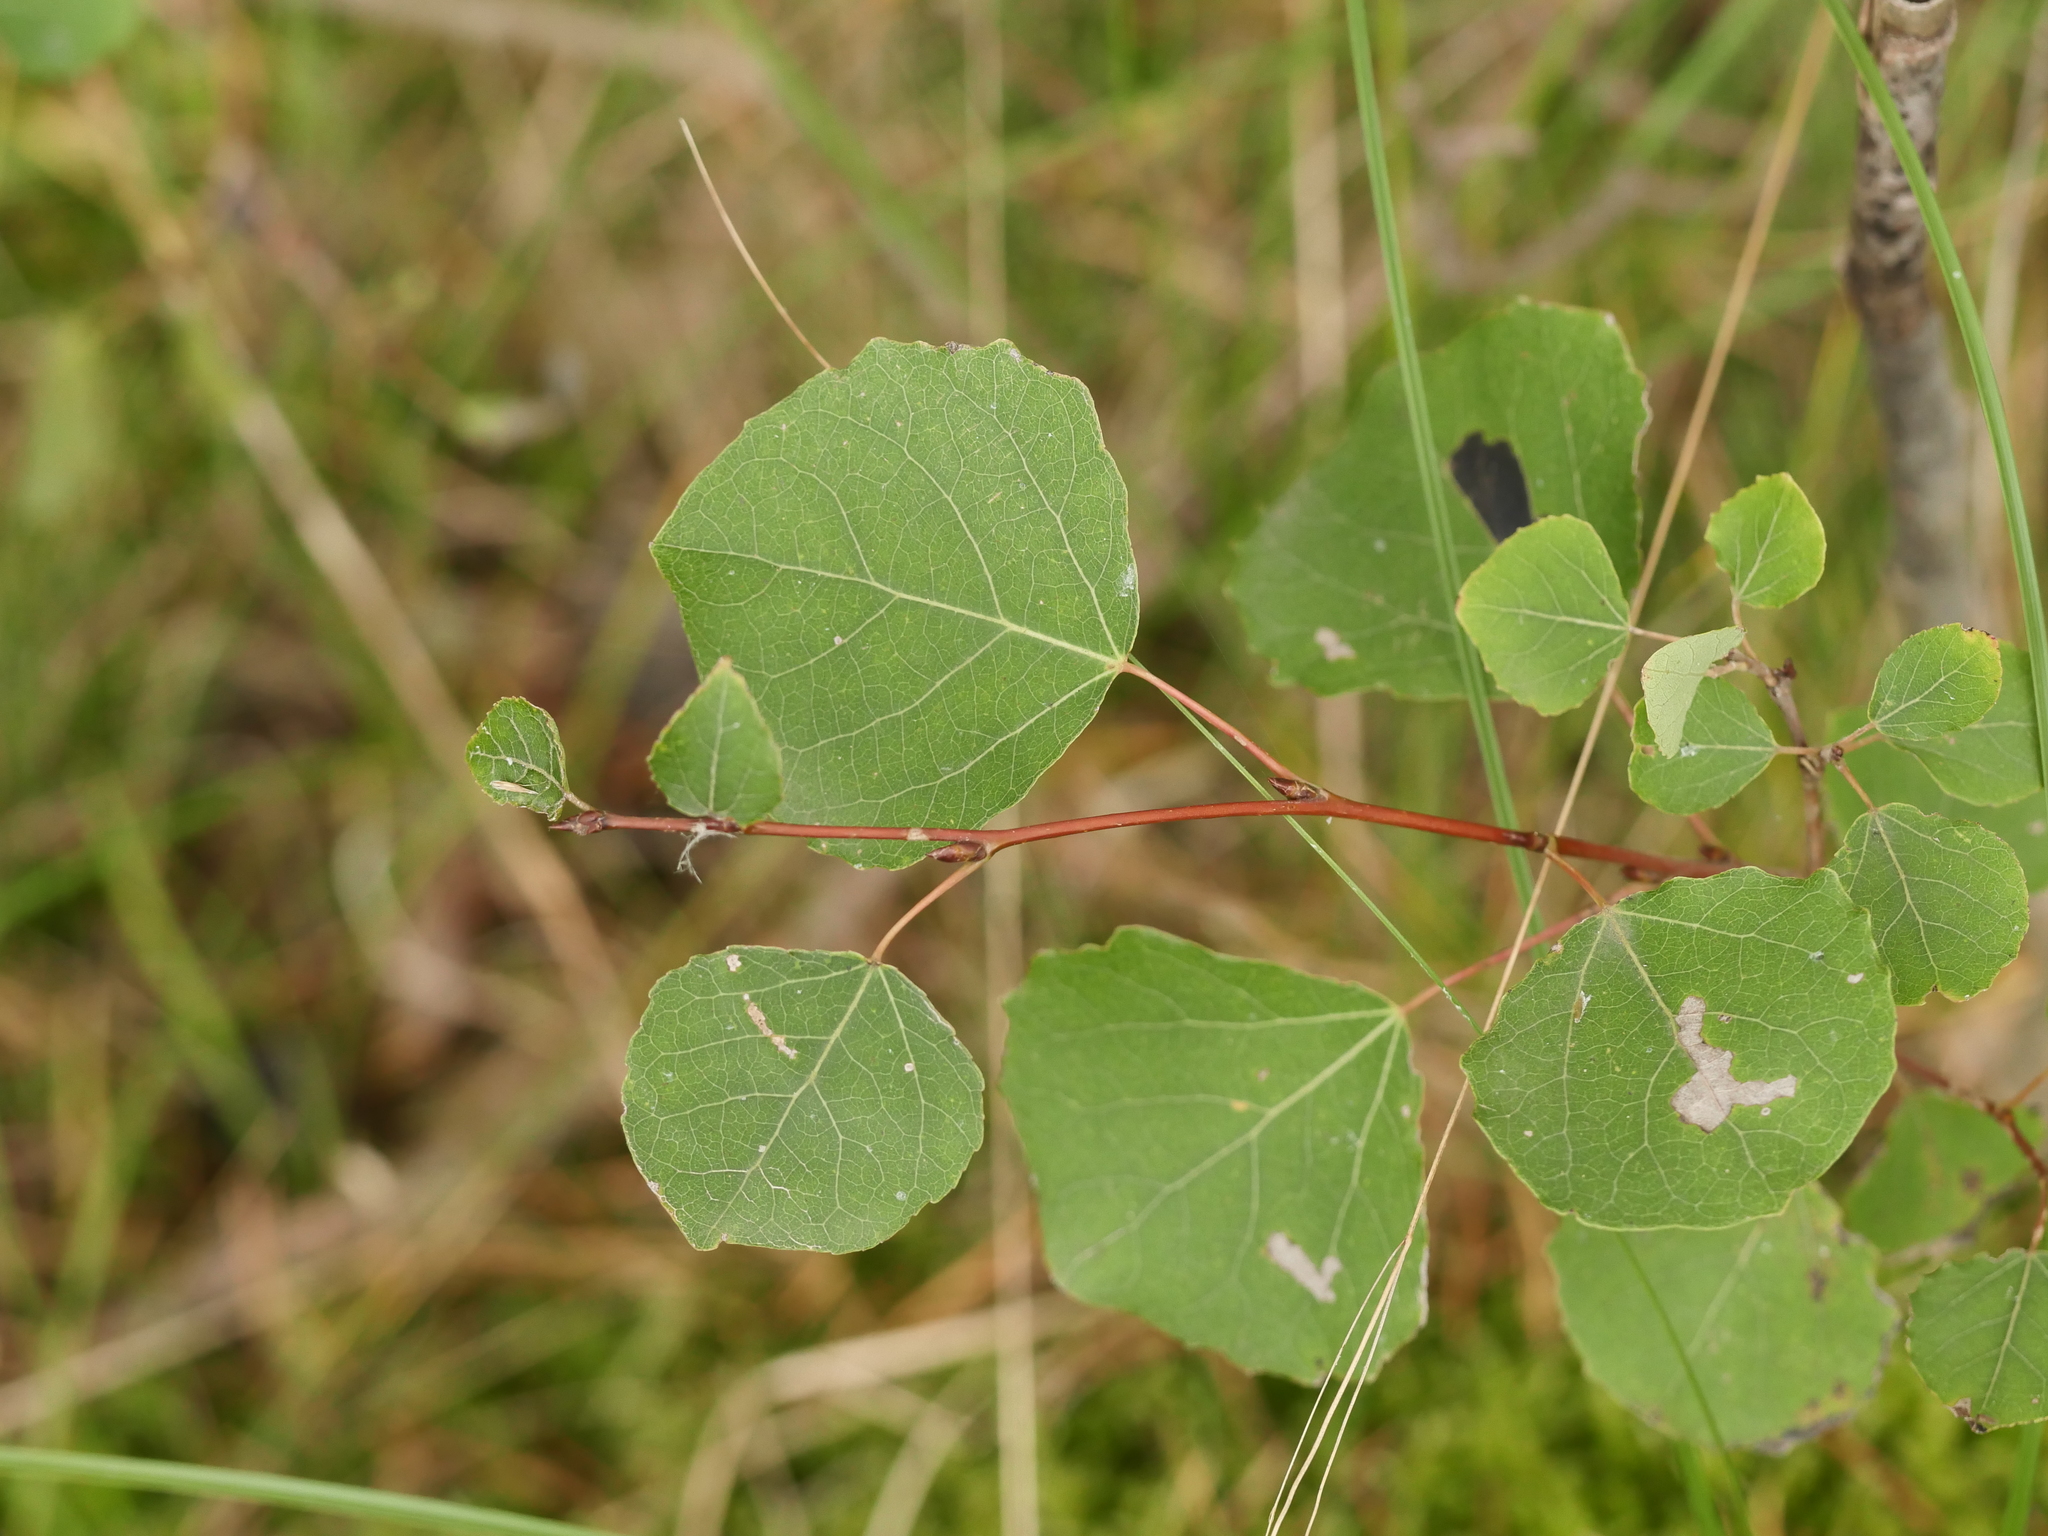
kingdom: Plantae
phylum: Tracheophyta
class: Magnoliopsida
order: Malpighiales
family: Salicaceae
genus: Populus
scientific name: Populus tremula
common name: European aspen
